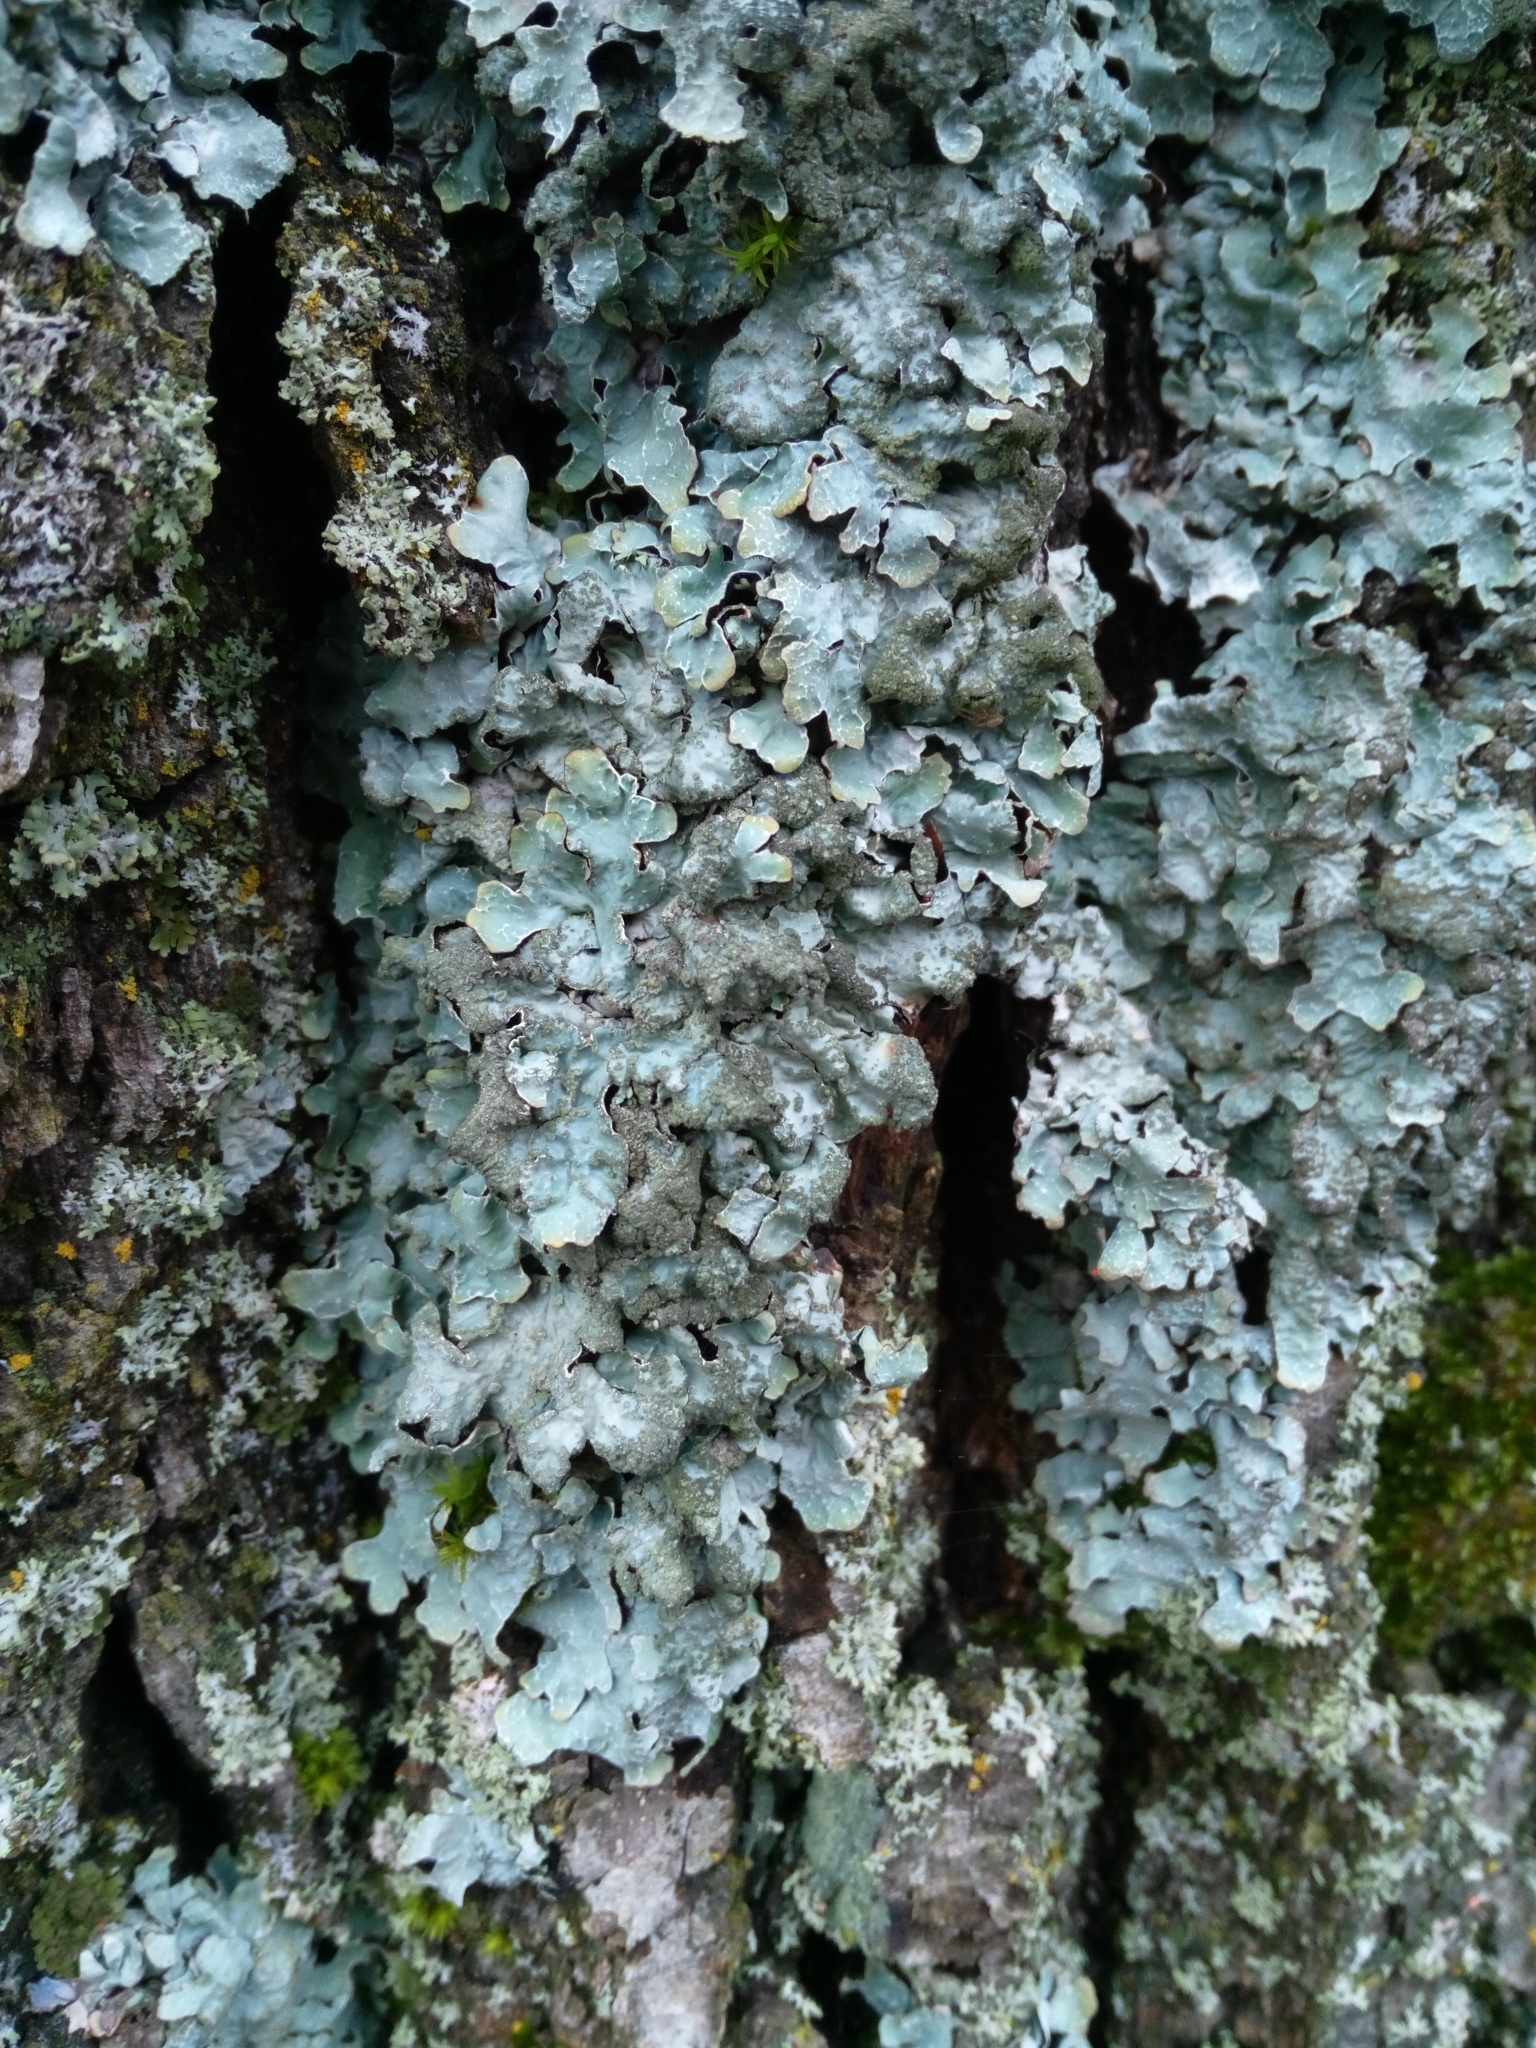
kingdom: Fungi
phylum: Ascomycota
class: Lecanoromycetes
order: Lecanorales
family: Parmeliaceae
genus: Parmelia
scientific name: Parmelia sulcata
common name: Netted shield lichen
